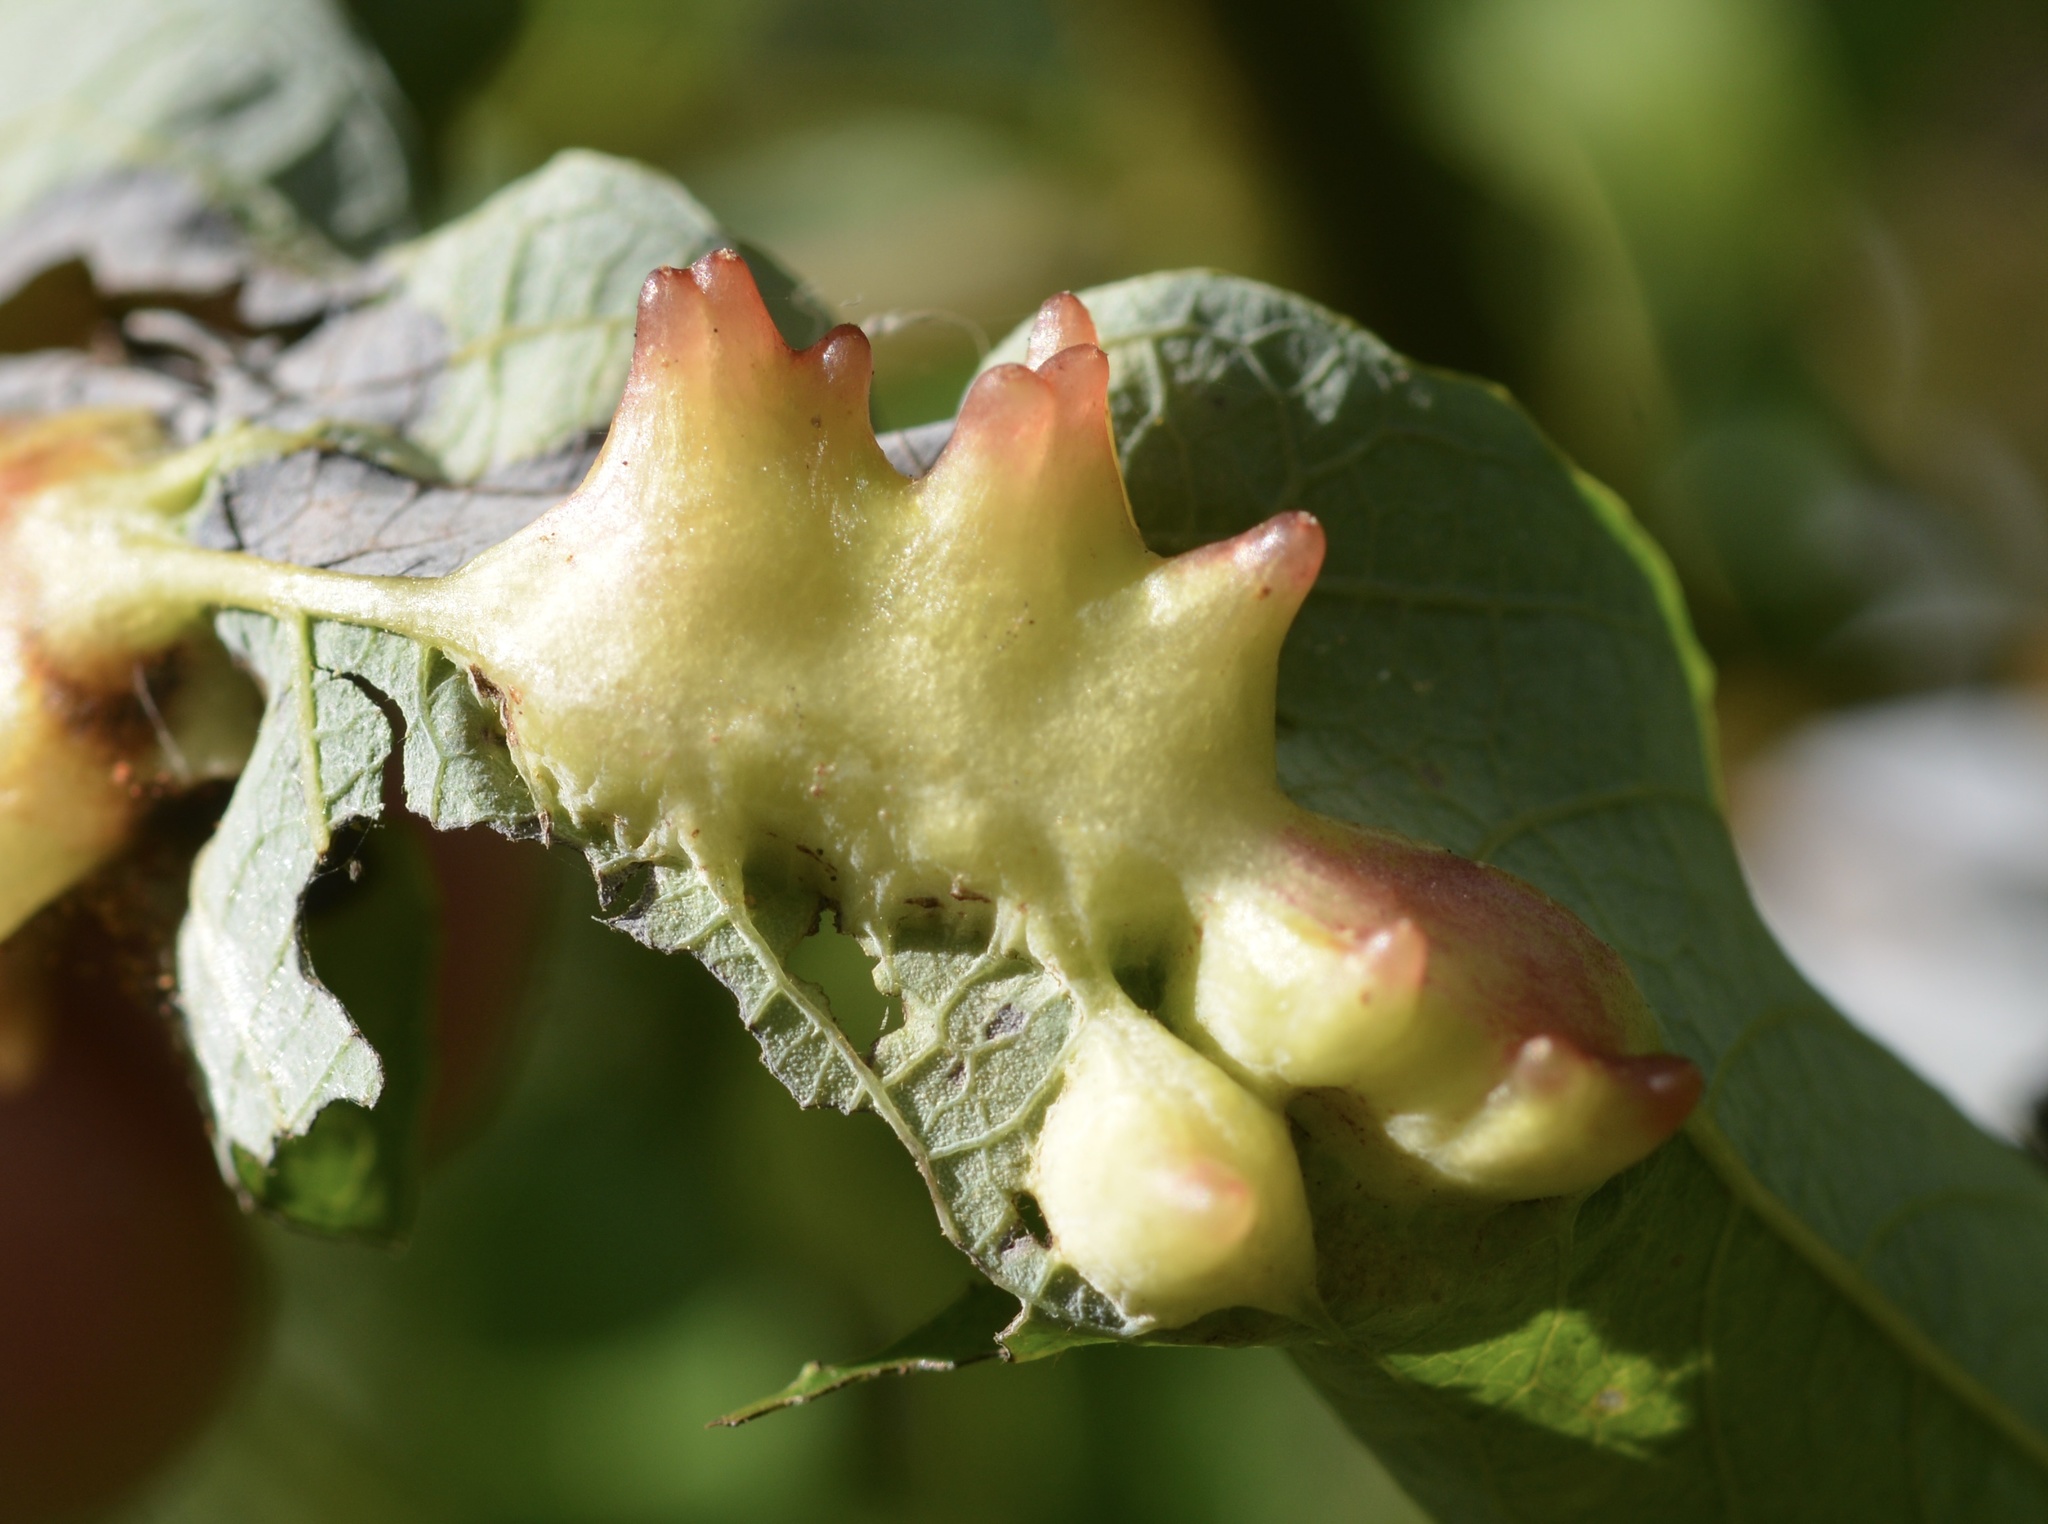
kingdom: Animalia
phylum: Arthropoda
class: Insecta
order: Diptera
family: Cecidomyiidae
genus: Iteomyia
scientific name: Iteomyia
